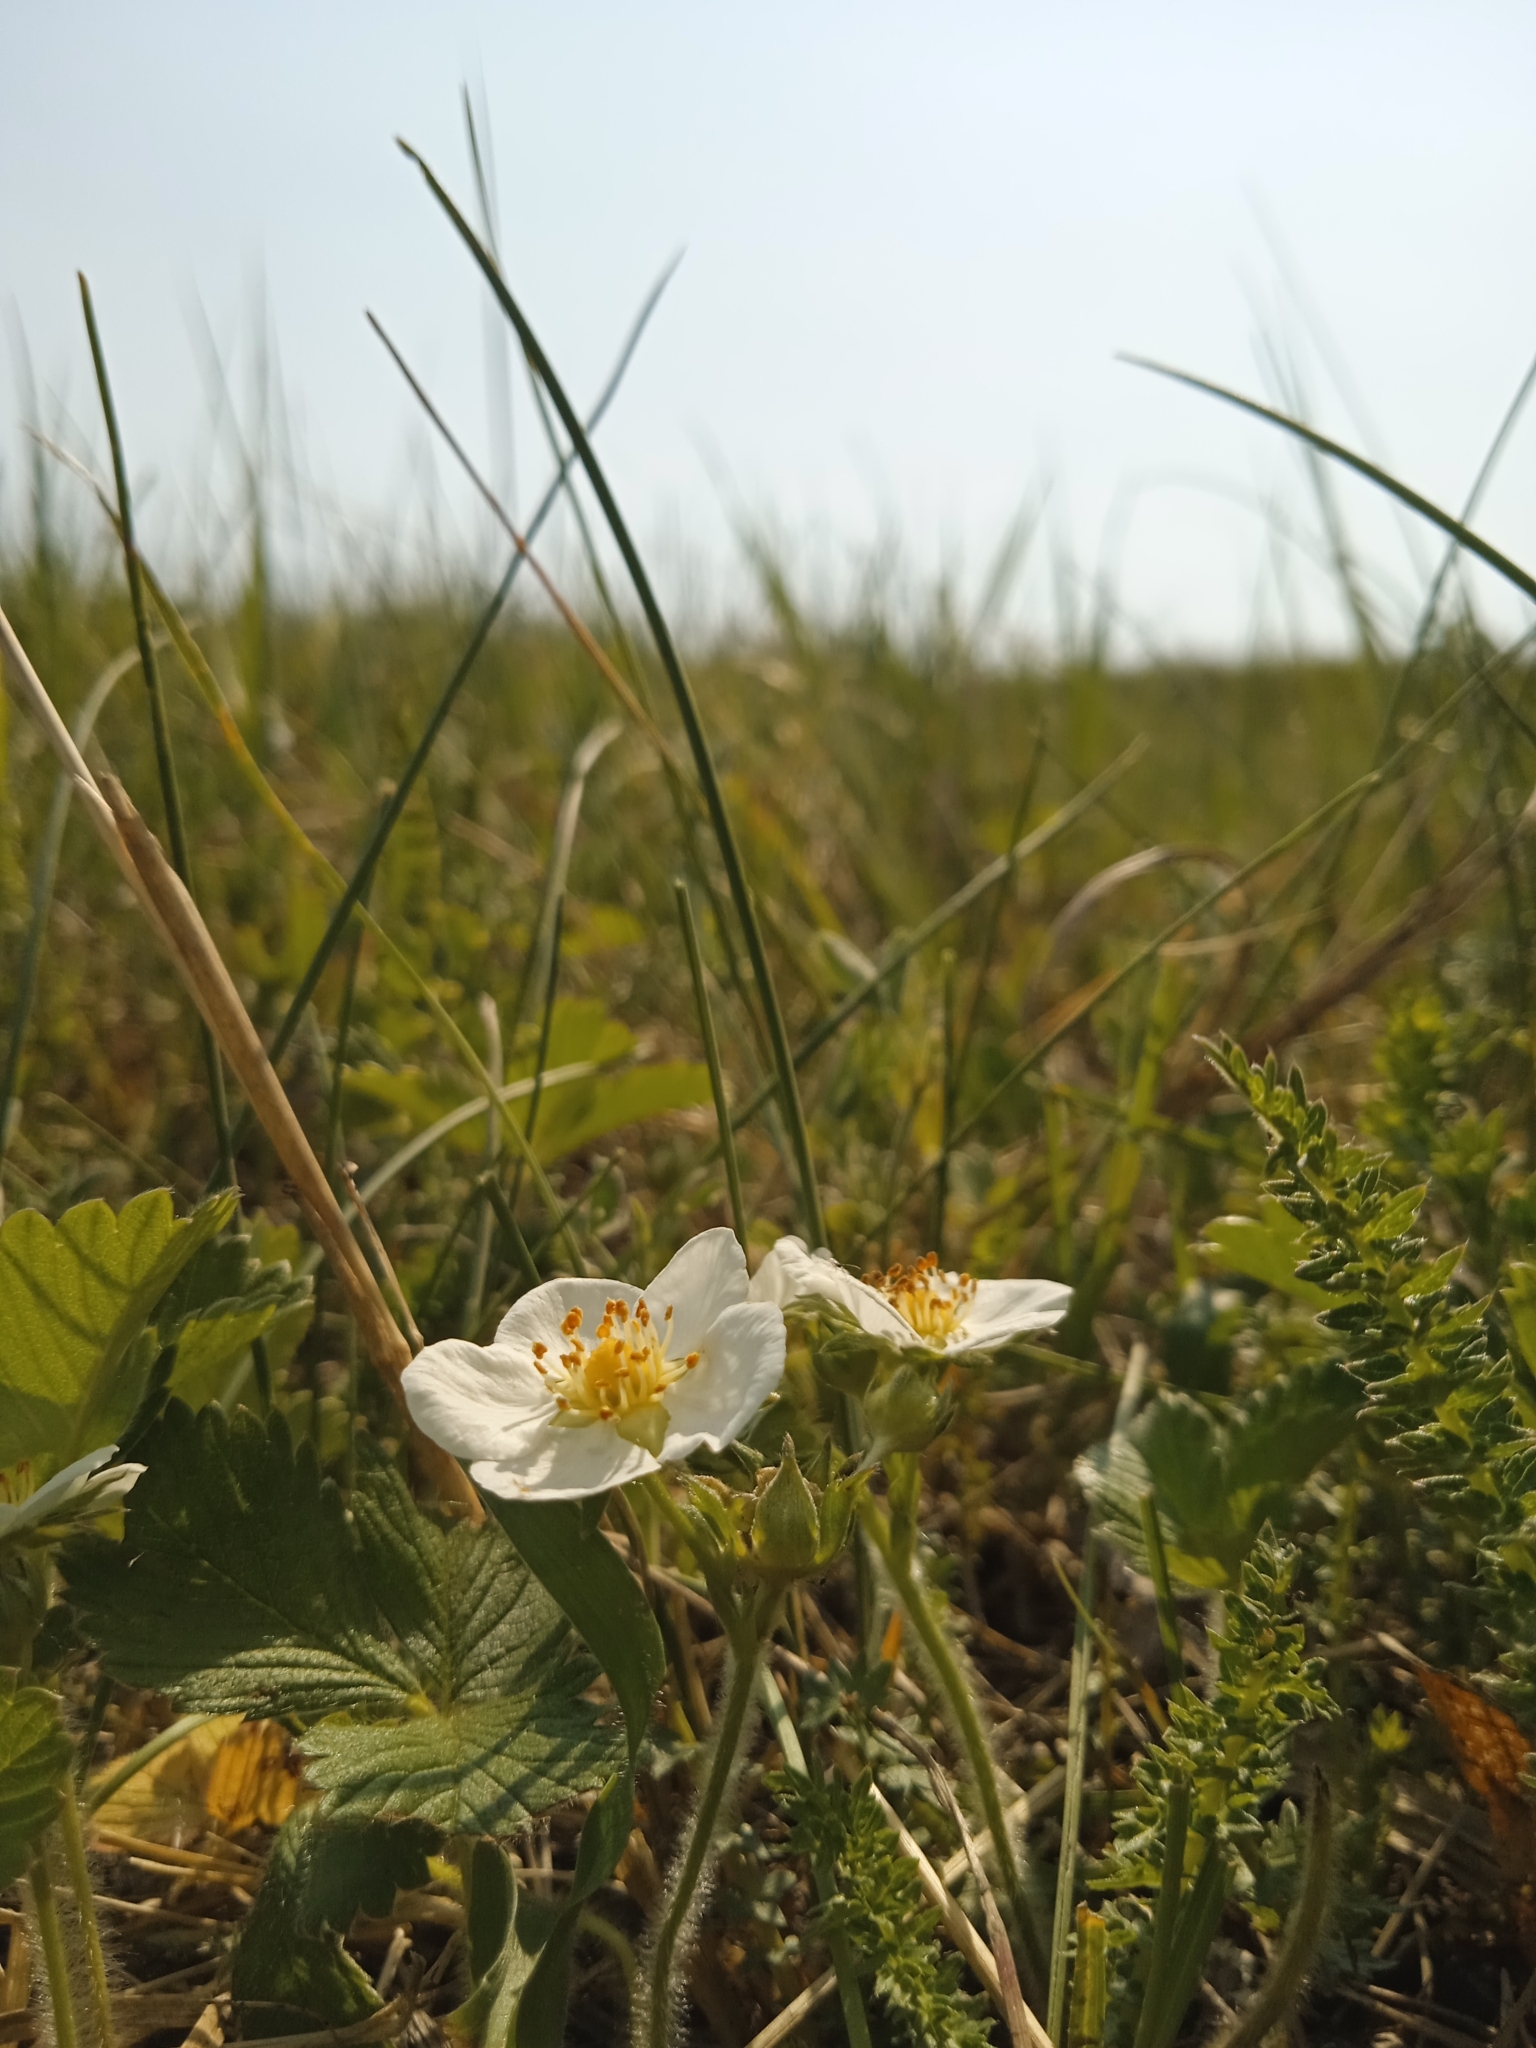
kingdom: Plantae
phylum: Tracheophyta
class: Magnoliopsida
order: Rosales
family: Rosaceae
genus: Fragaria
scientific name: Fragaria viridis
